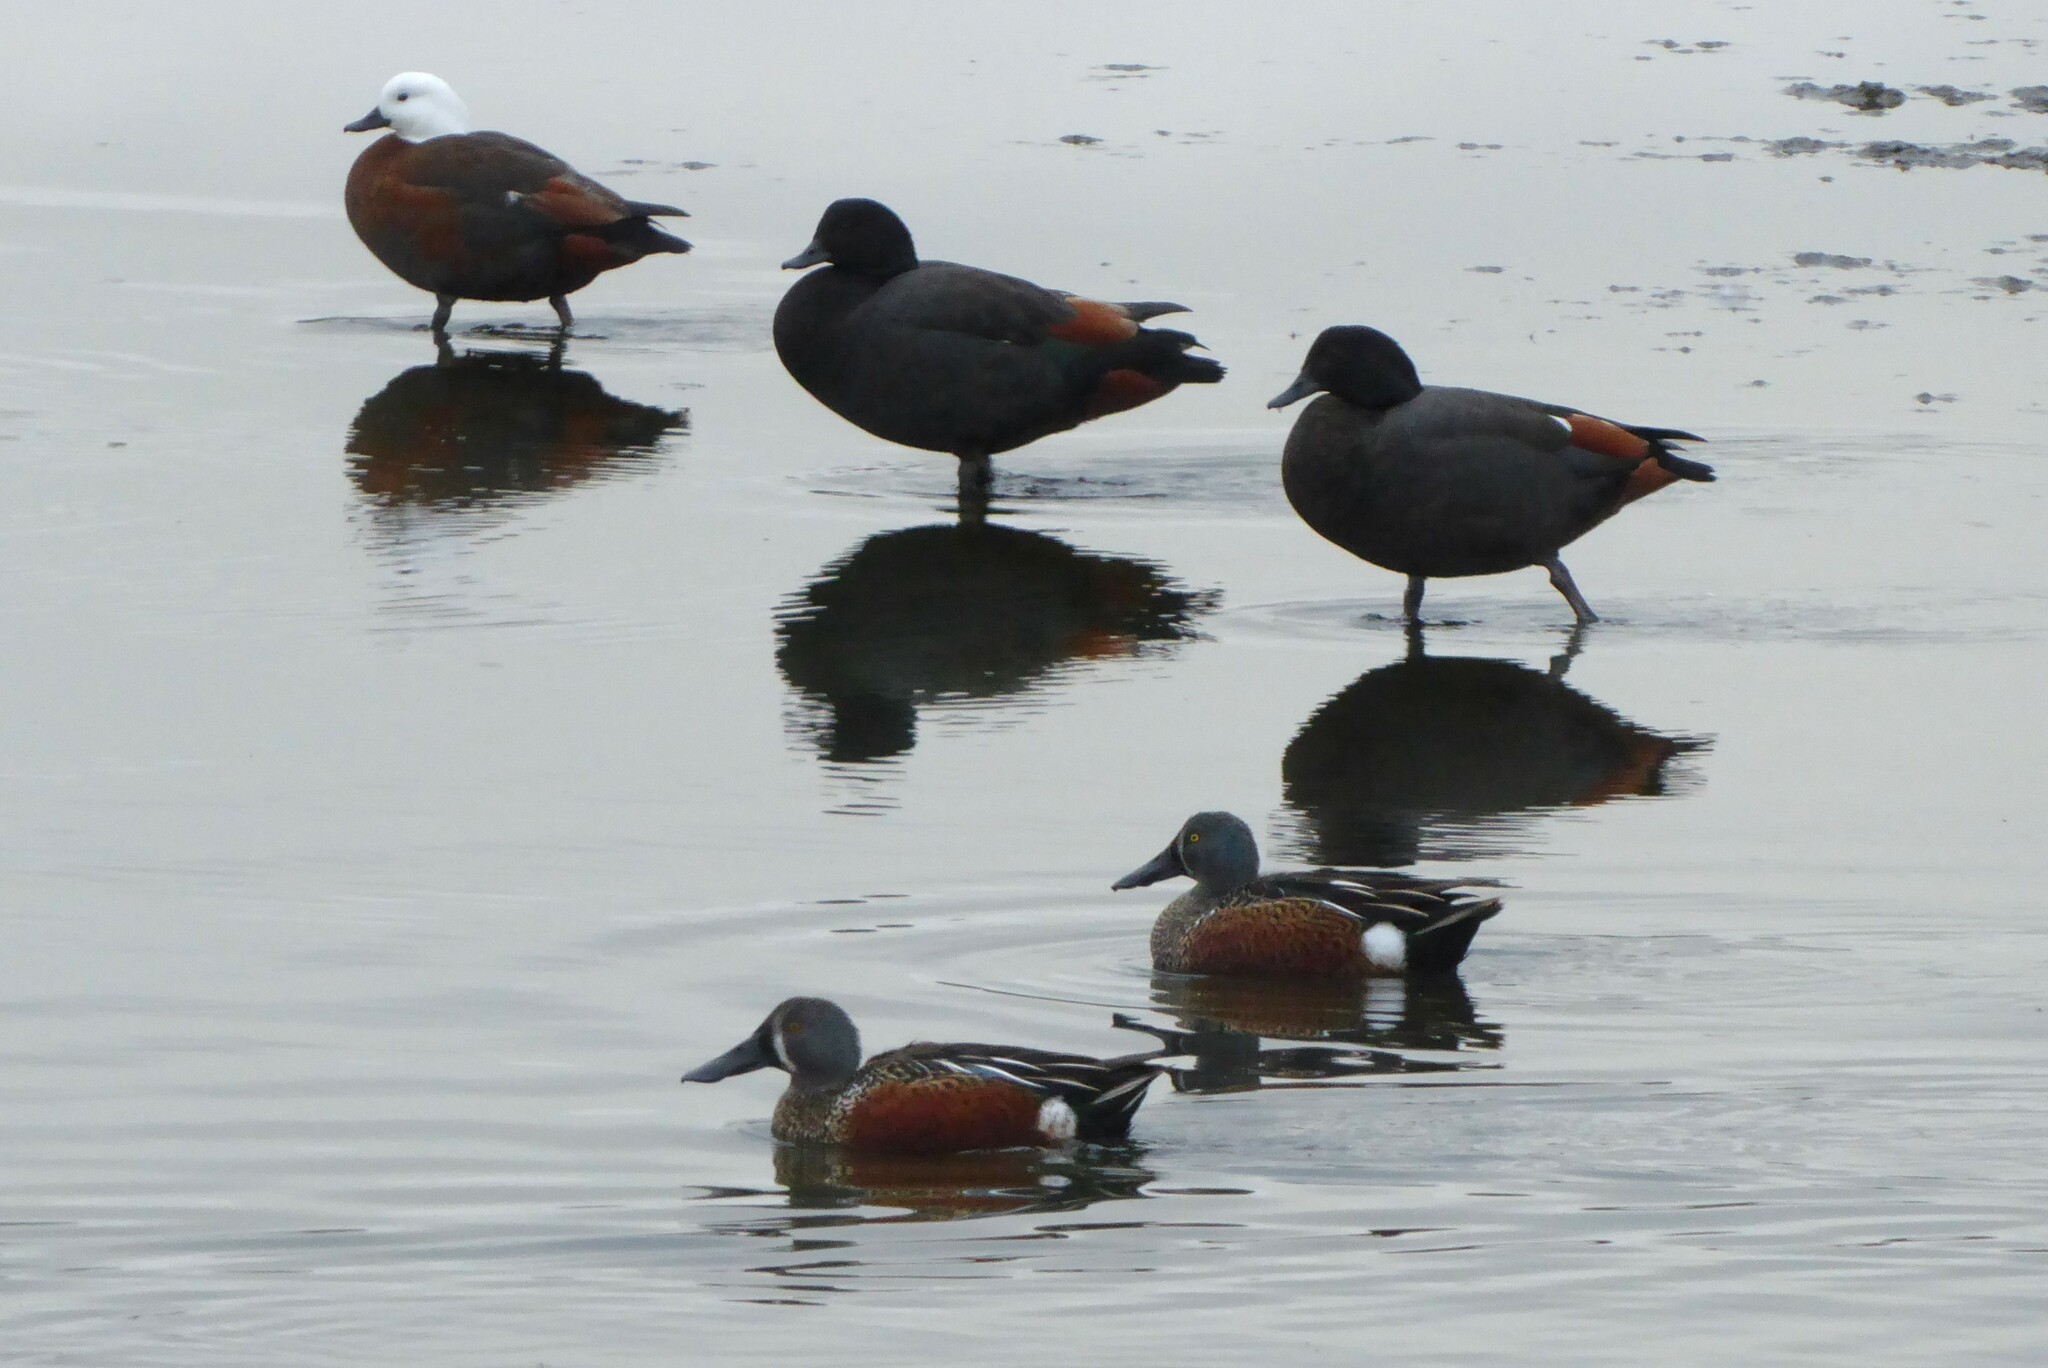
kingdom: Animalia
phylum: Chordata
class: Aves
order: Anseriformes
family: Anatidae
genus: Spatula
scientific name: Spatula rhynchotis
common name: Australian shoveler
